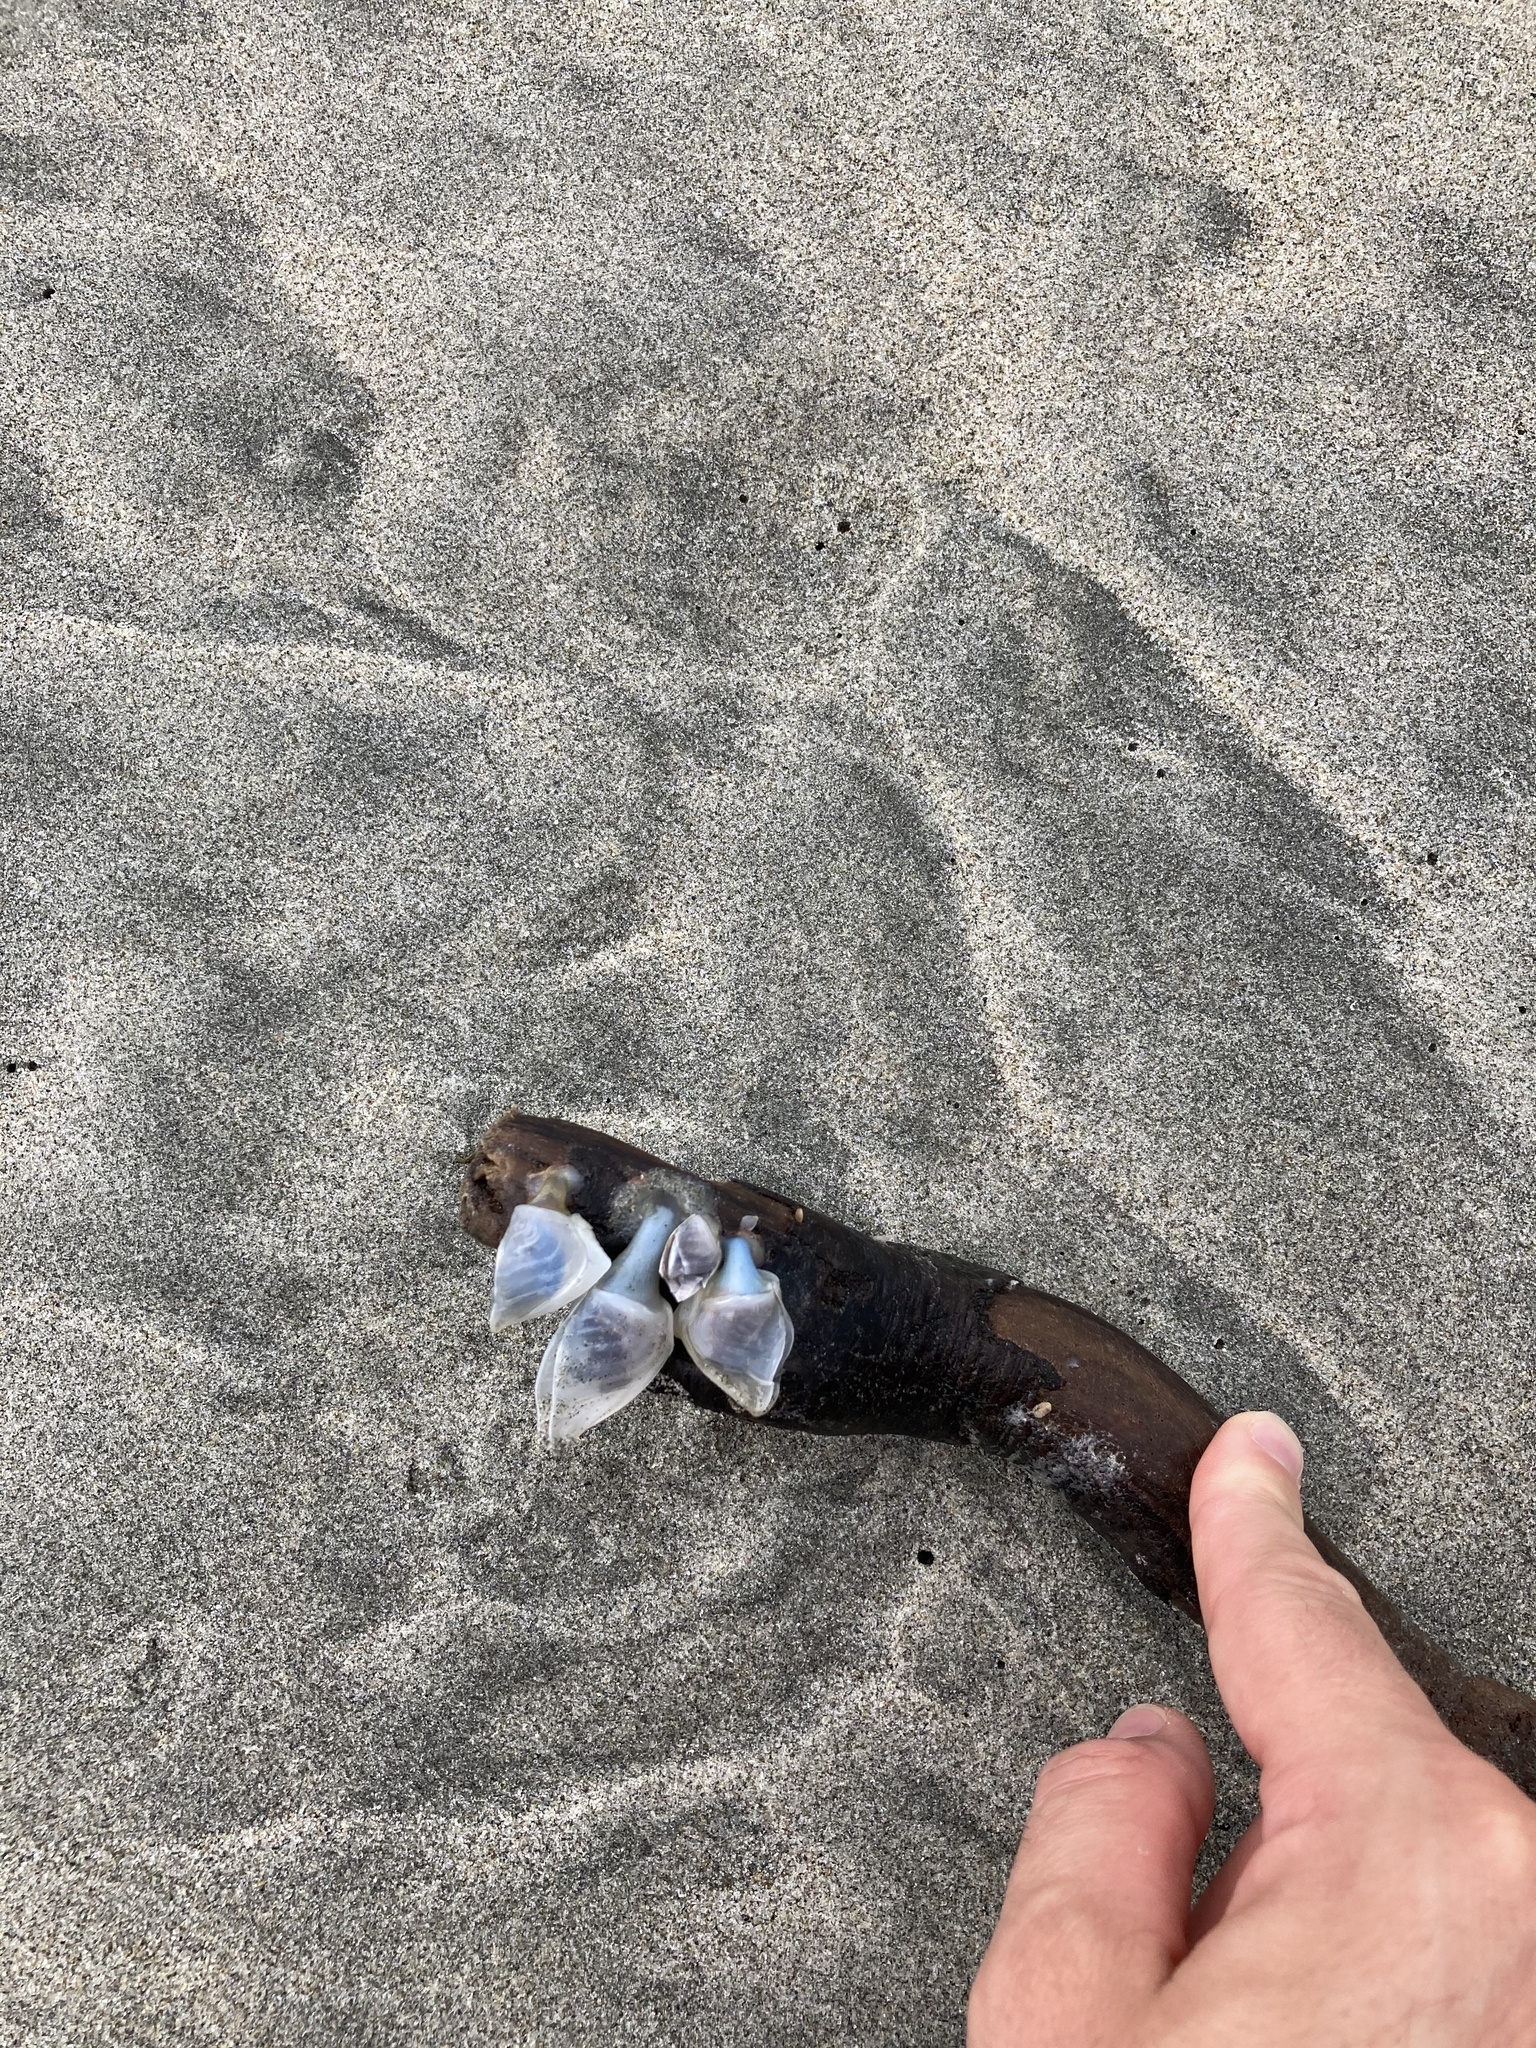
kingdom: Animalia
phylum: Arthropoda
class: Maxillopoda
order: Pedunculata
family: Lepadidae
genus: Dosima
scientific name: Dosima fascicularis
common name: Buoy barnacle
